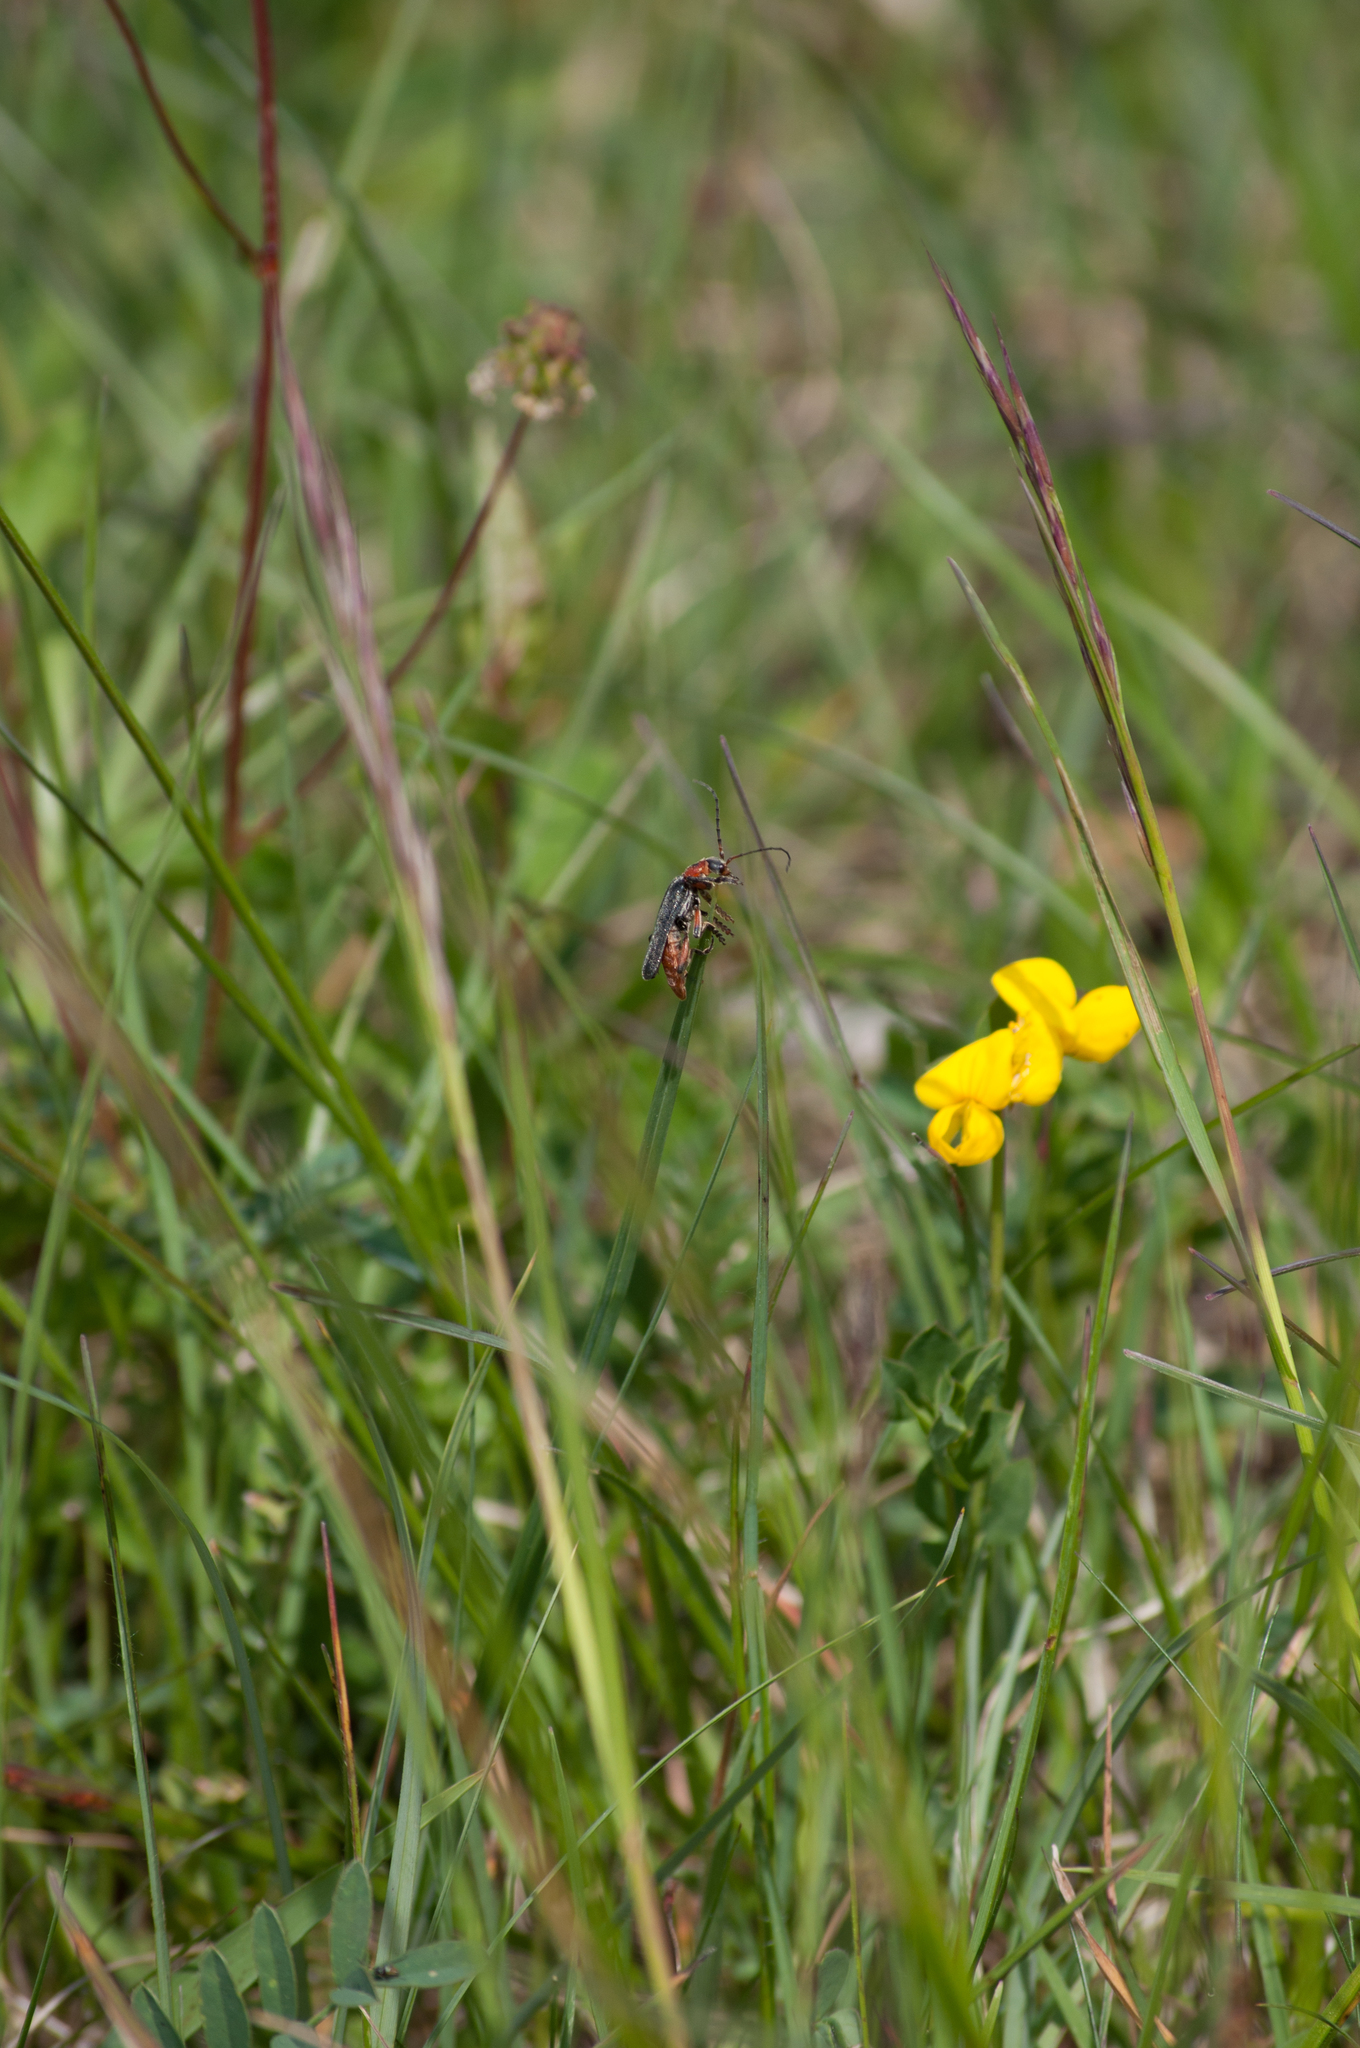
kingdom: Animalia
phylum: Arthropoda
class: Insecta
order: Coleoptera
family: Cantharidae
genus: Cantharis
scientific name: Cantharis rustica
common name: Soldier beetle
